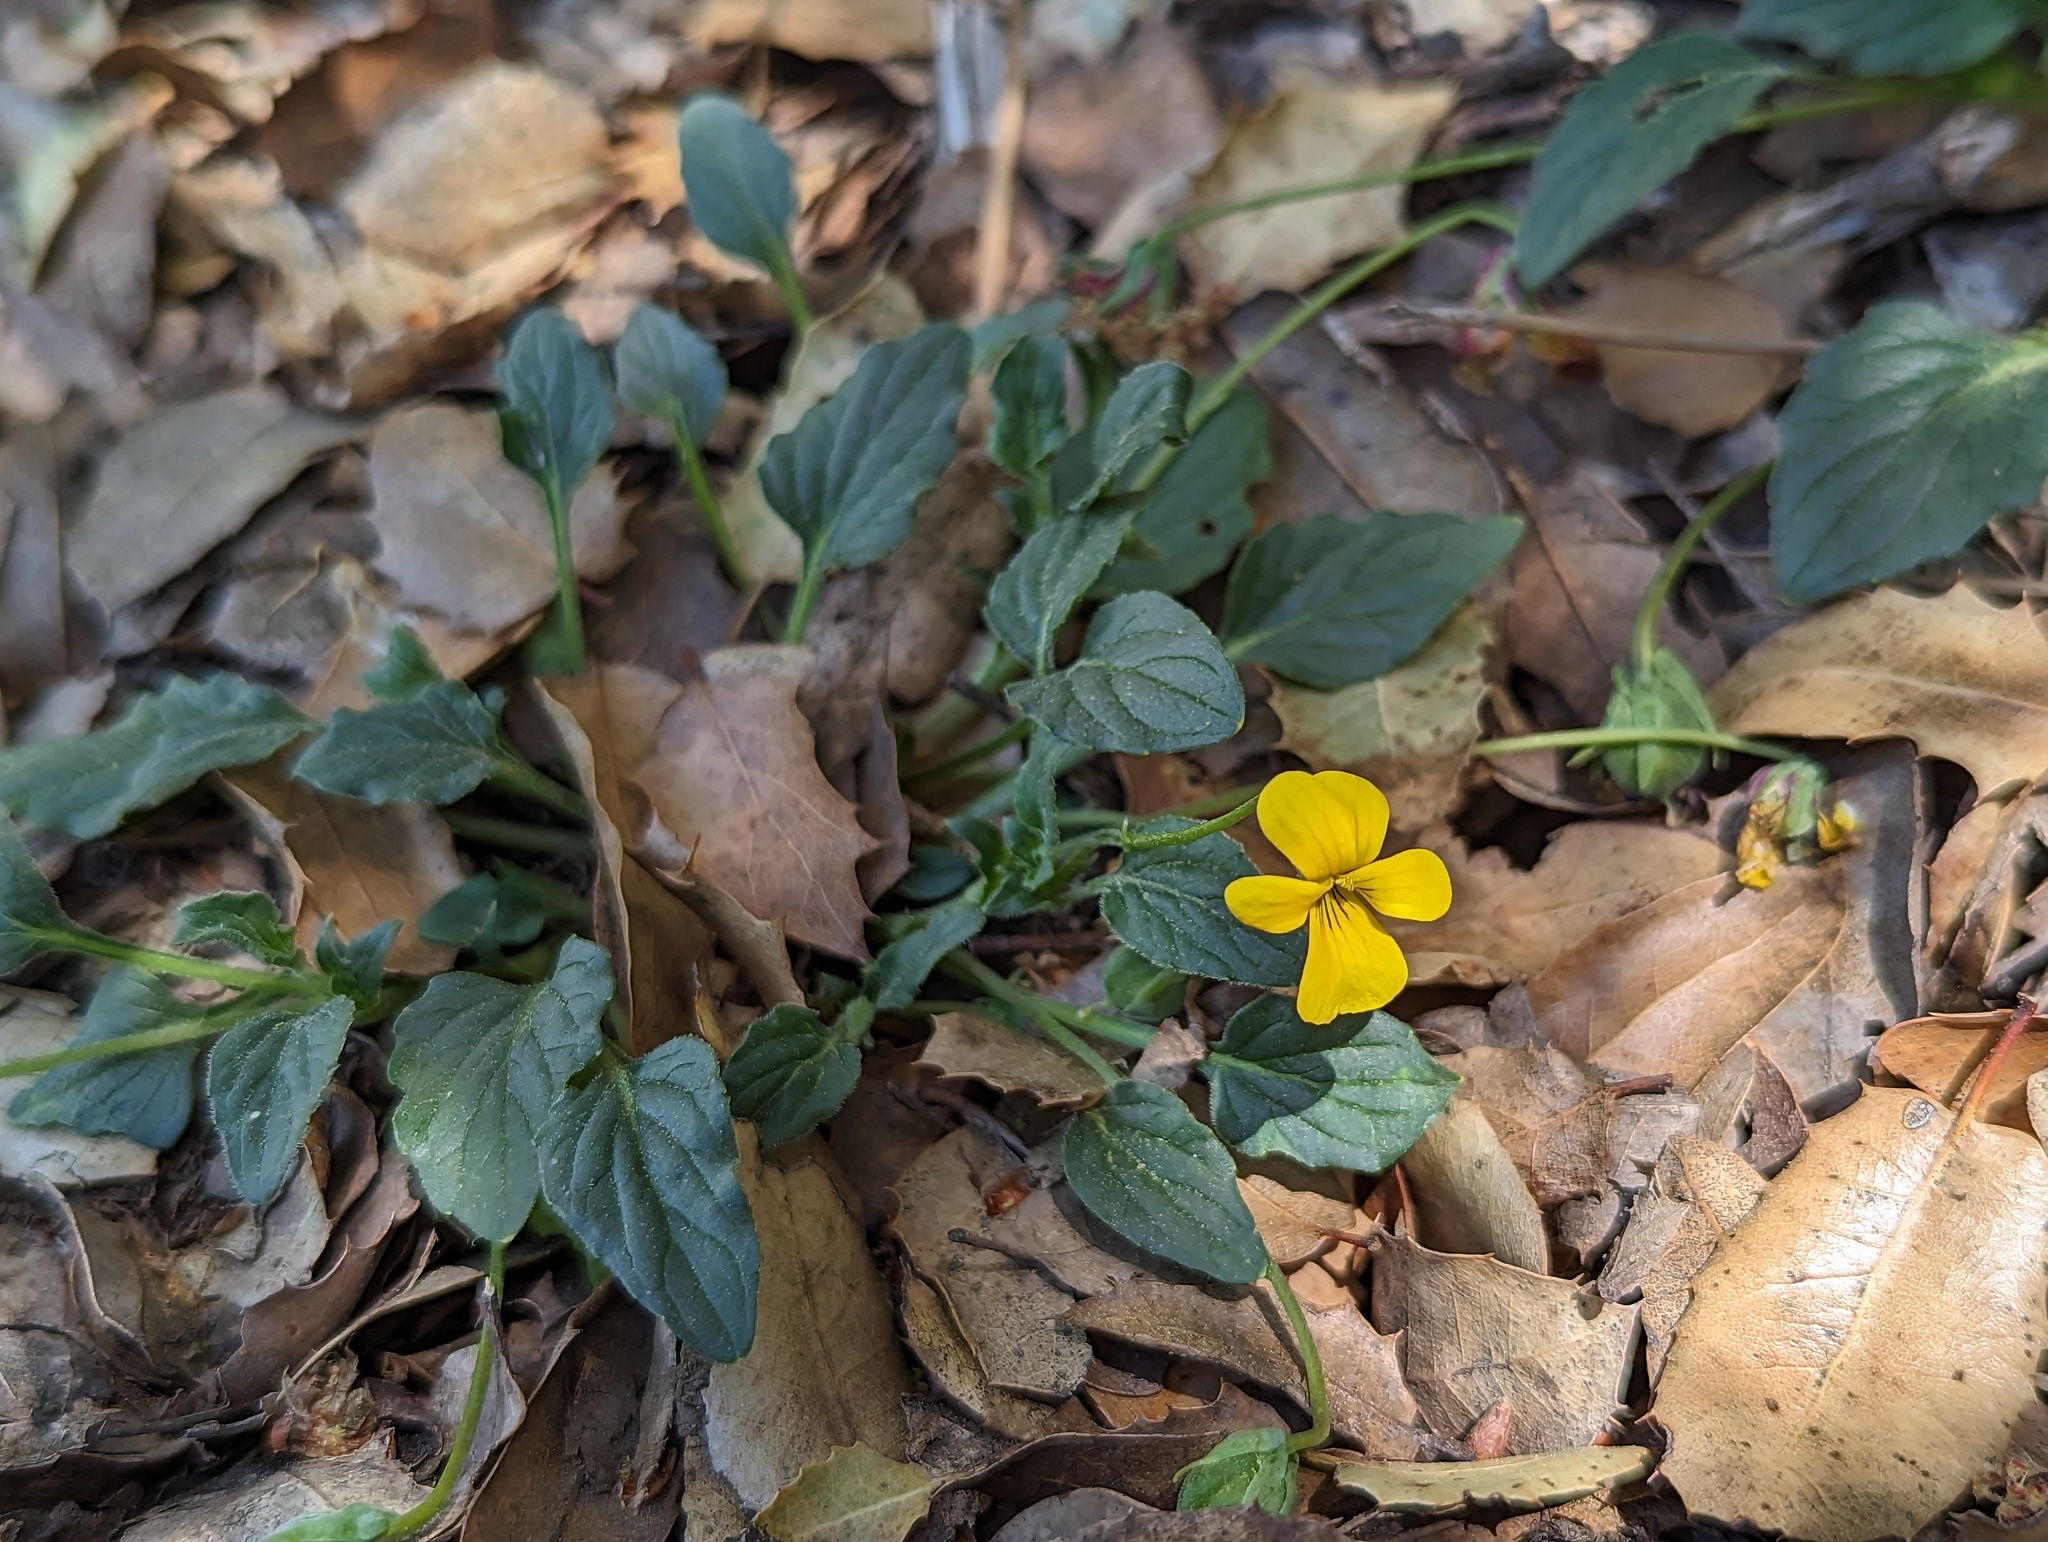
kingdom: Plantae
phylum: Tracheophyta
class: Magnoliopsida
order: Malpighiales
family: Violaceae
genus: Viola
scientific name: Viola purpurea
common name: Pine violet
